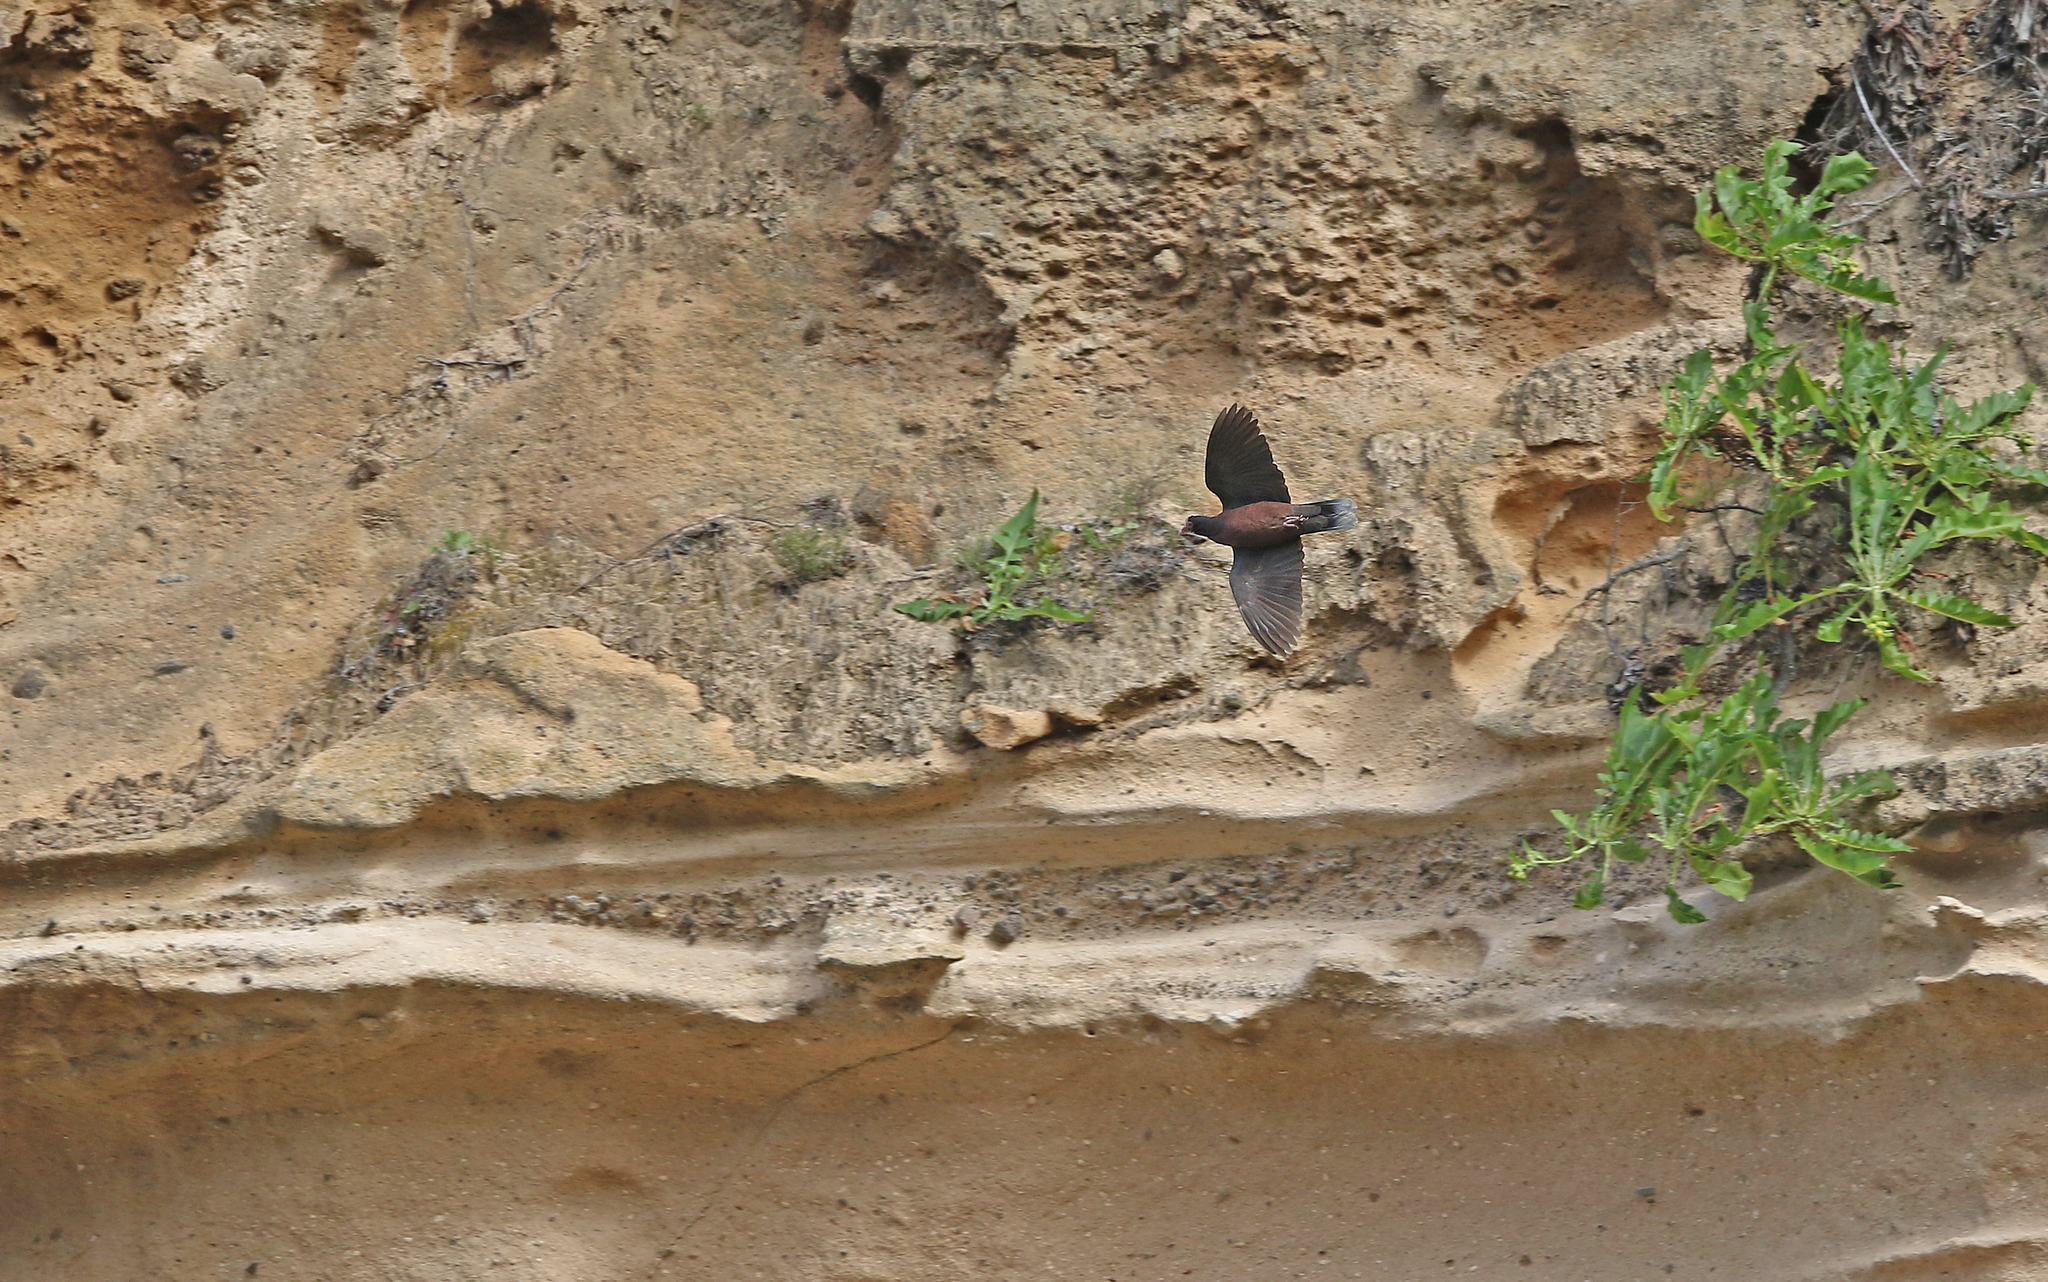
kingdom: Animalia
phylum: Chordata
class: Aves
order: Columbiformes
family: Columbidae
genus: Columba
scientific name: Columba junoniae
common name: Laurel pigeon
